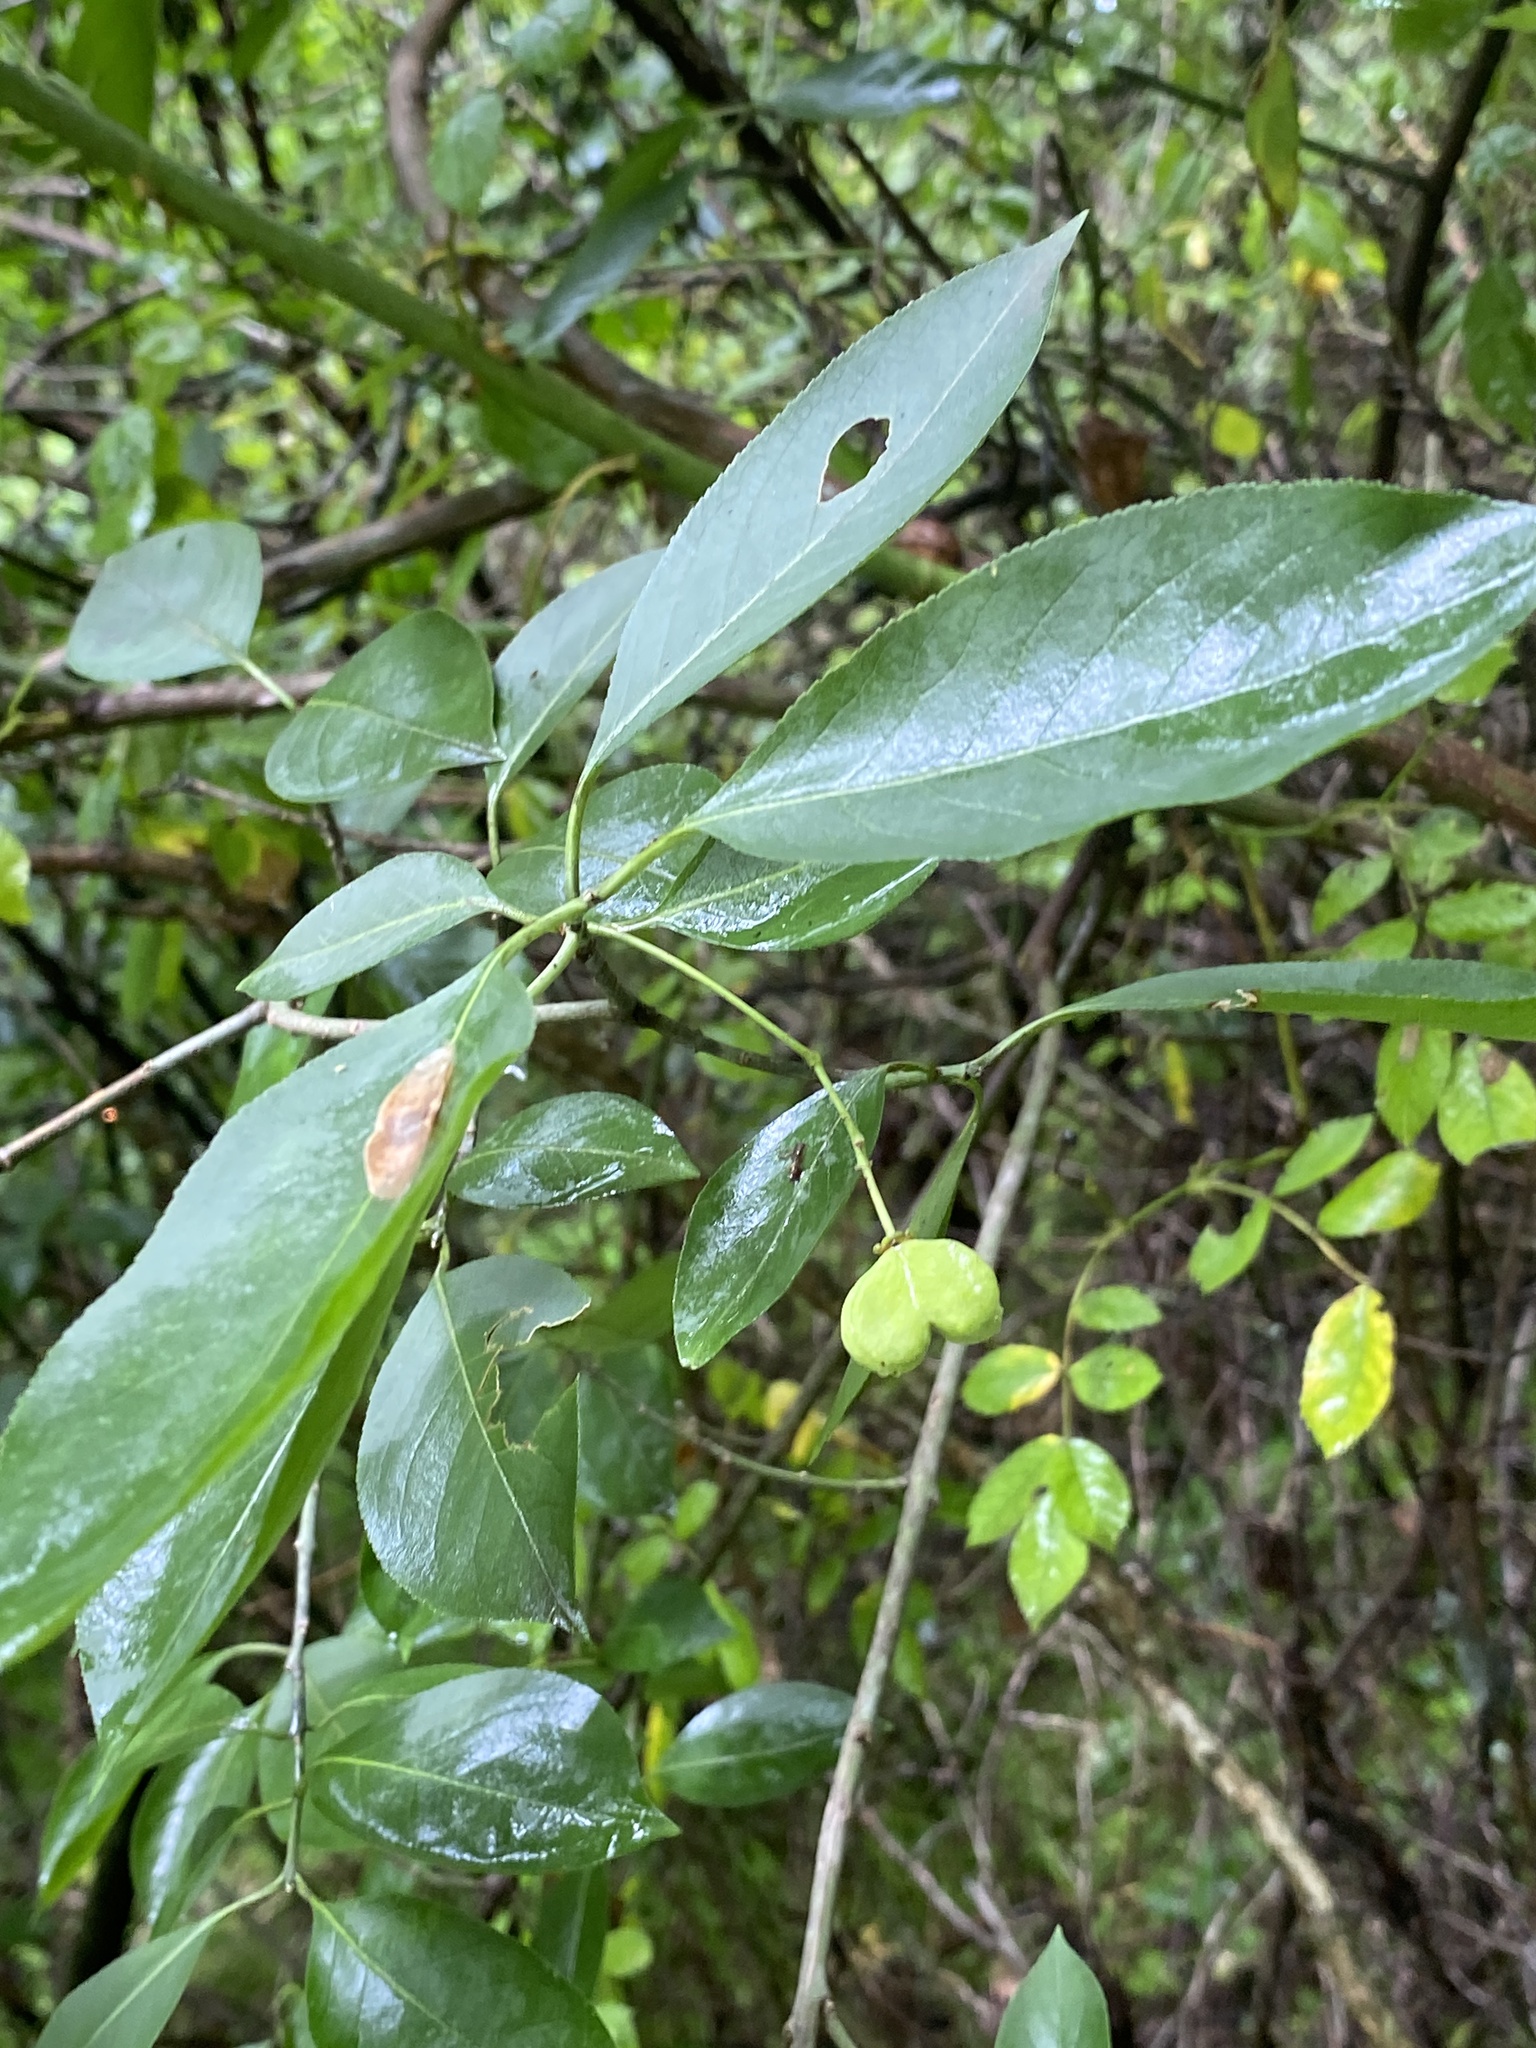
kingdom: Plantae
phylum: Tracheophyta
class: Magnoliopsida
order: Celastrales
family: Celastraceae
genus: Euonymus
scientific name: Euonymus atropurpureus
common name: Eastern wahoo
